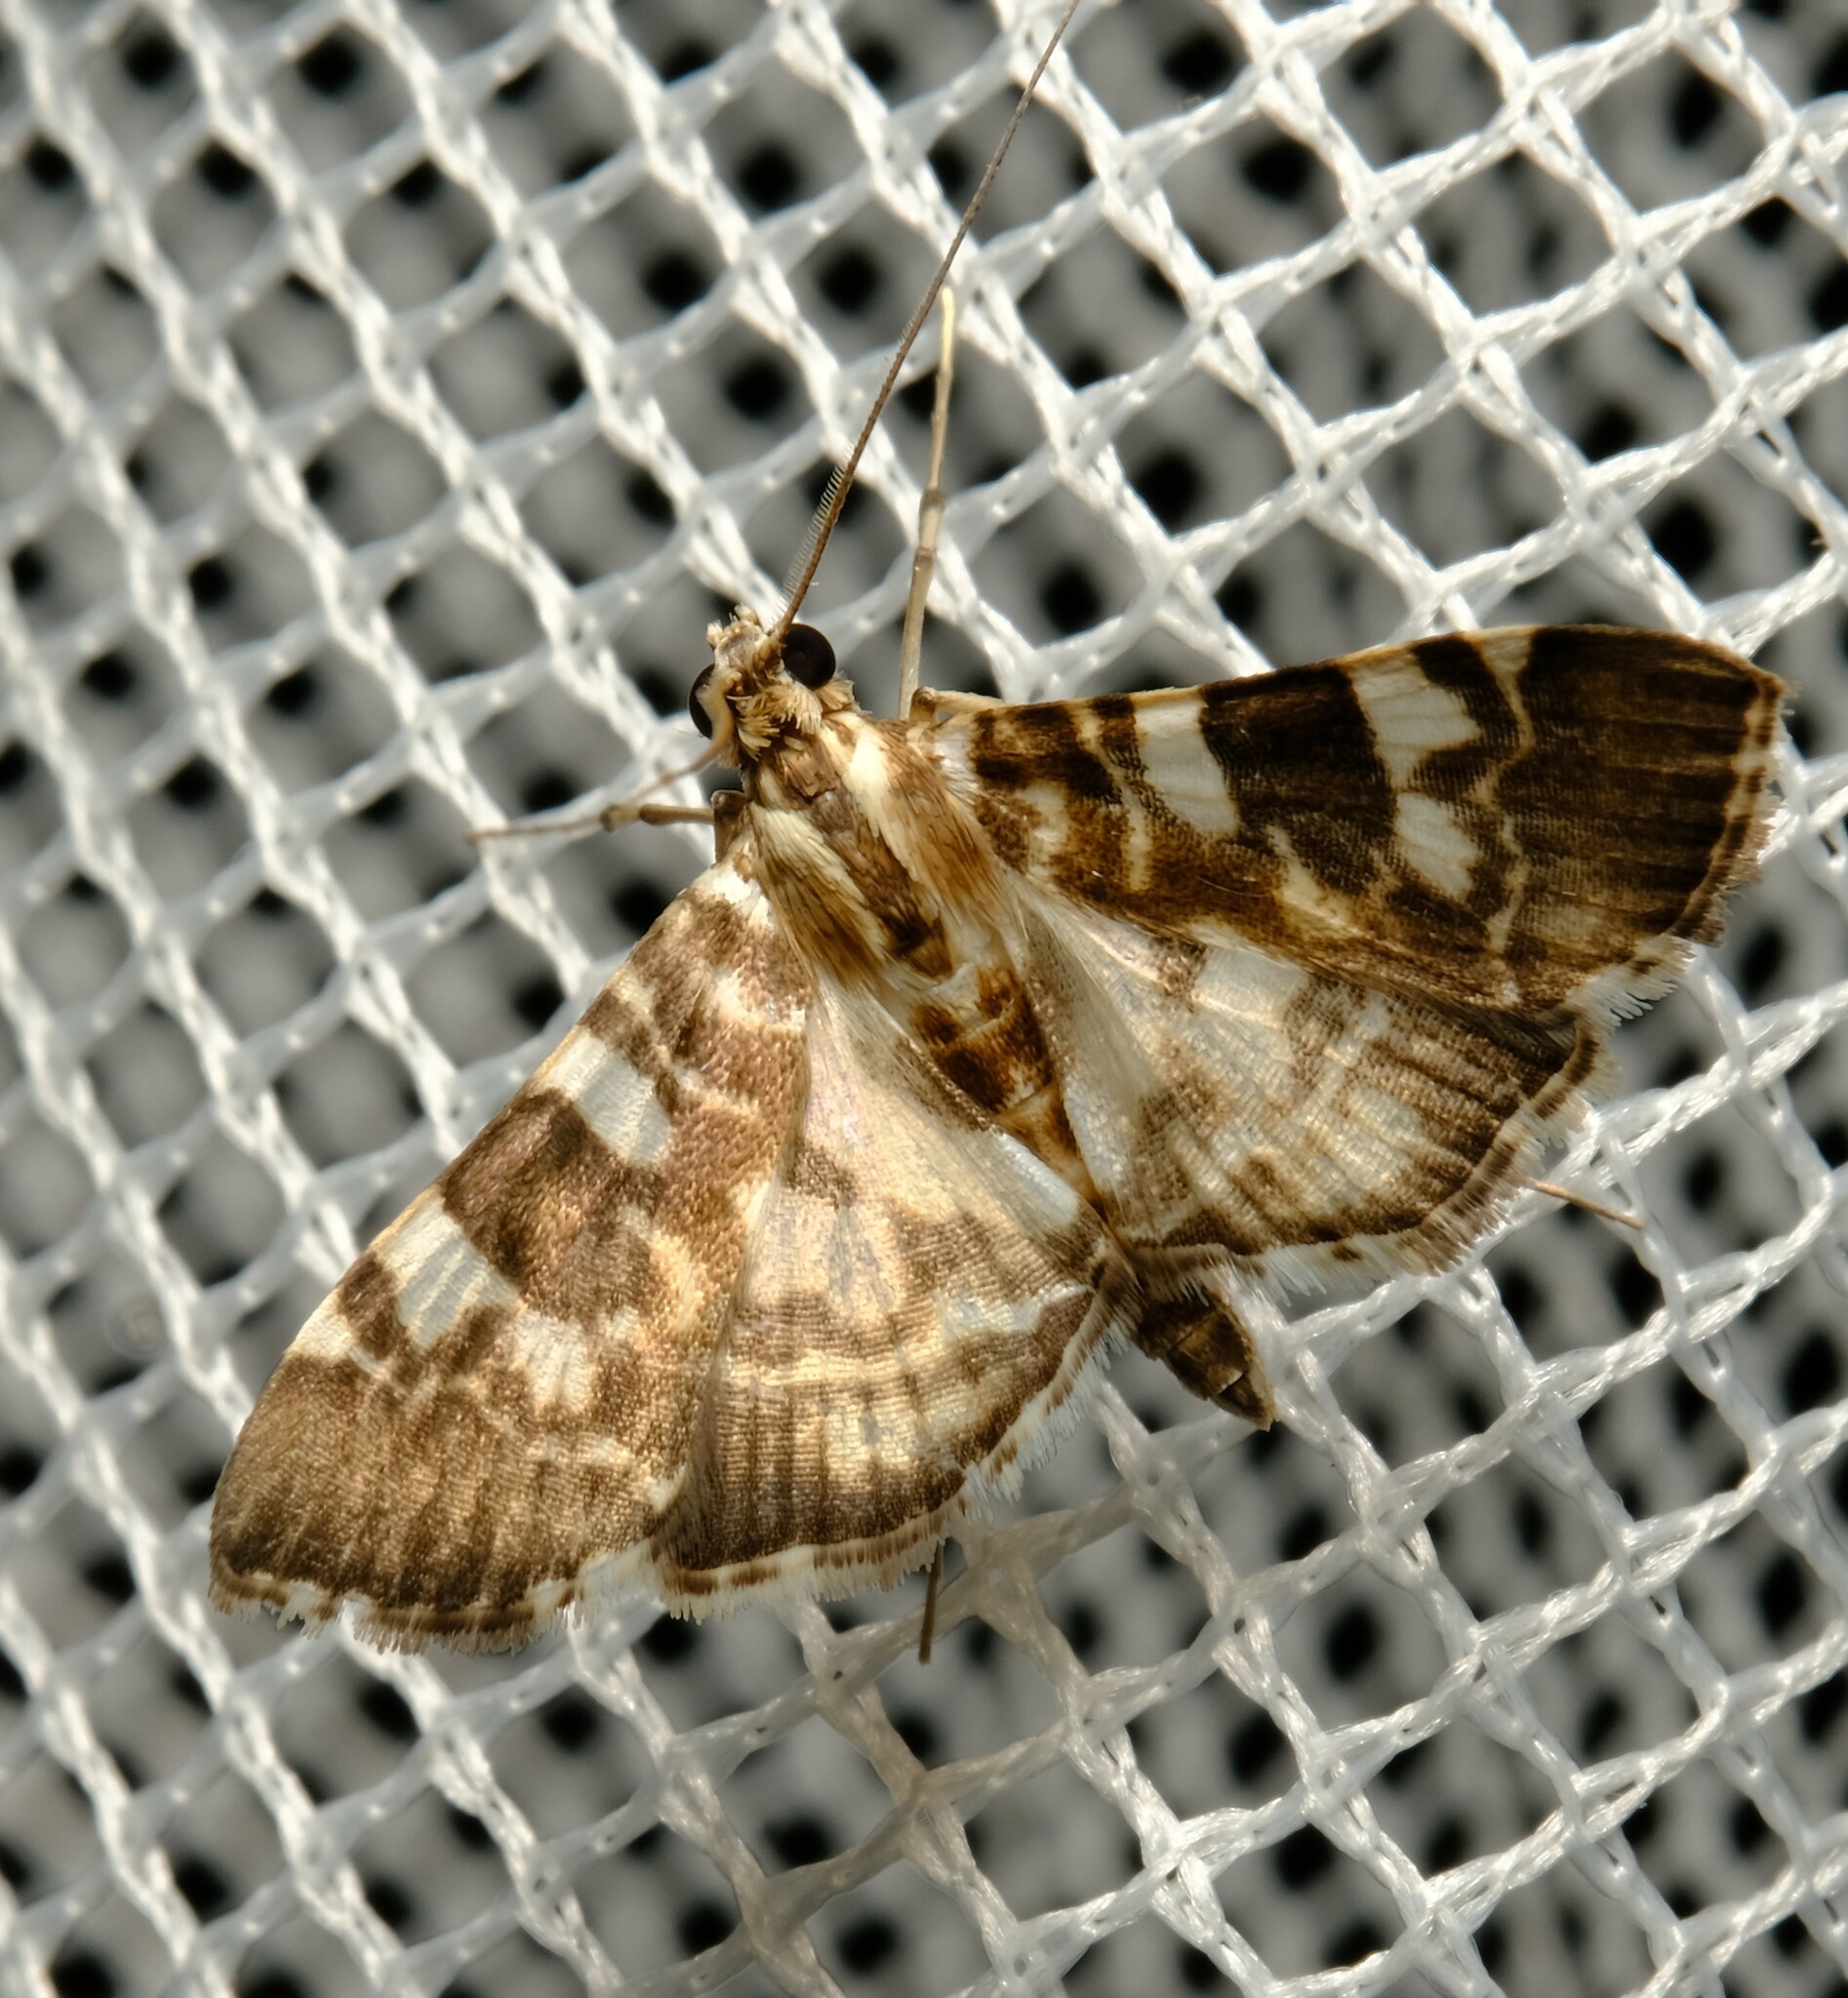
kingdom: Animalia
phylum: Arthropoda
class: Insecta
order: Lepidoptera
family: Crambidae
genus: Chabula
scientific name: Chabula acamasalis
